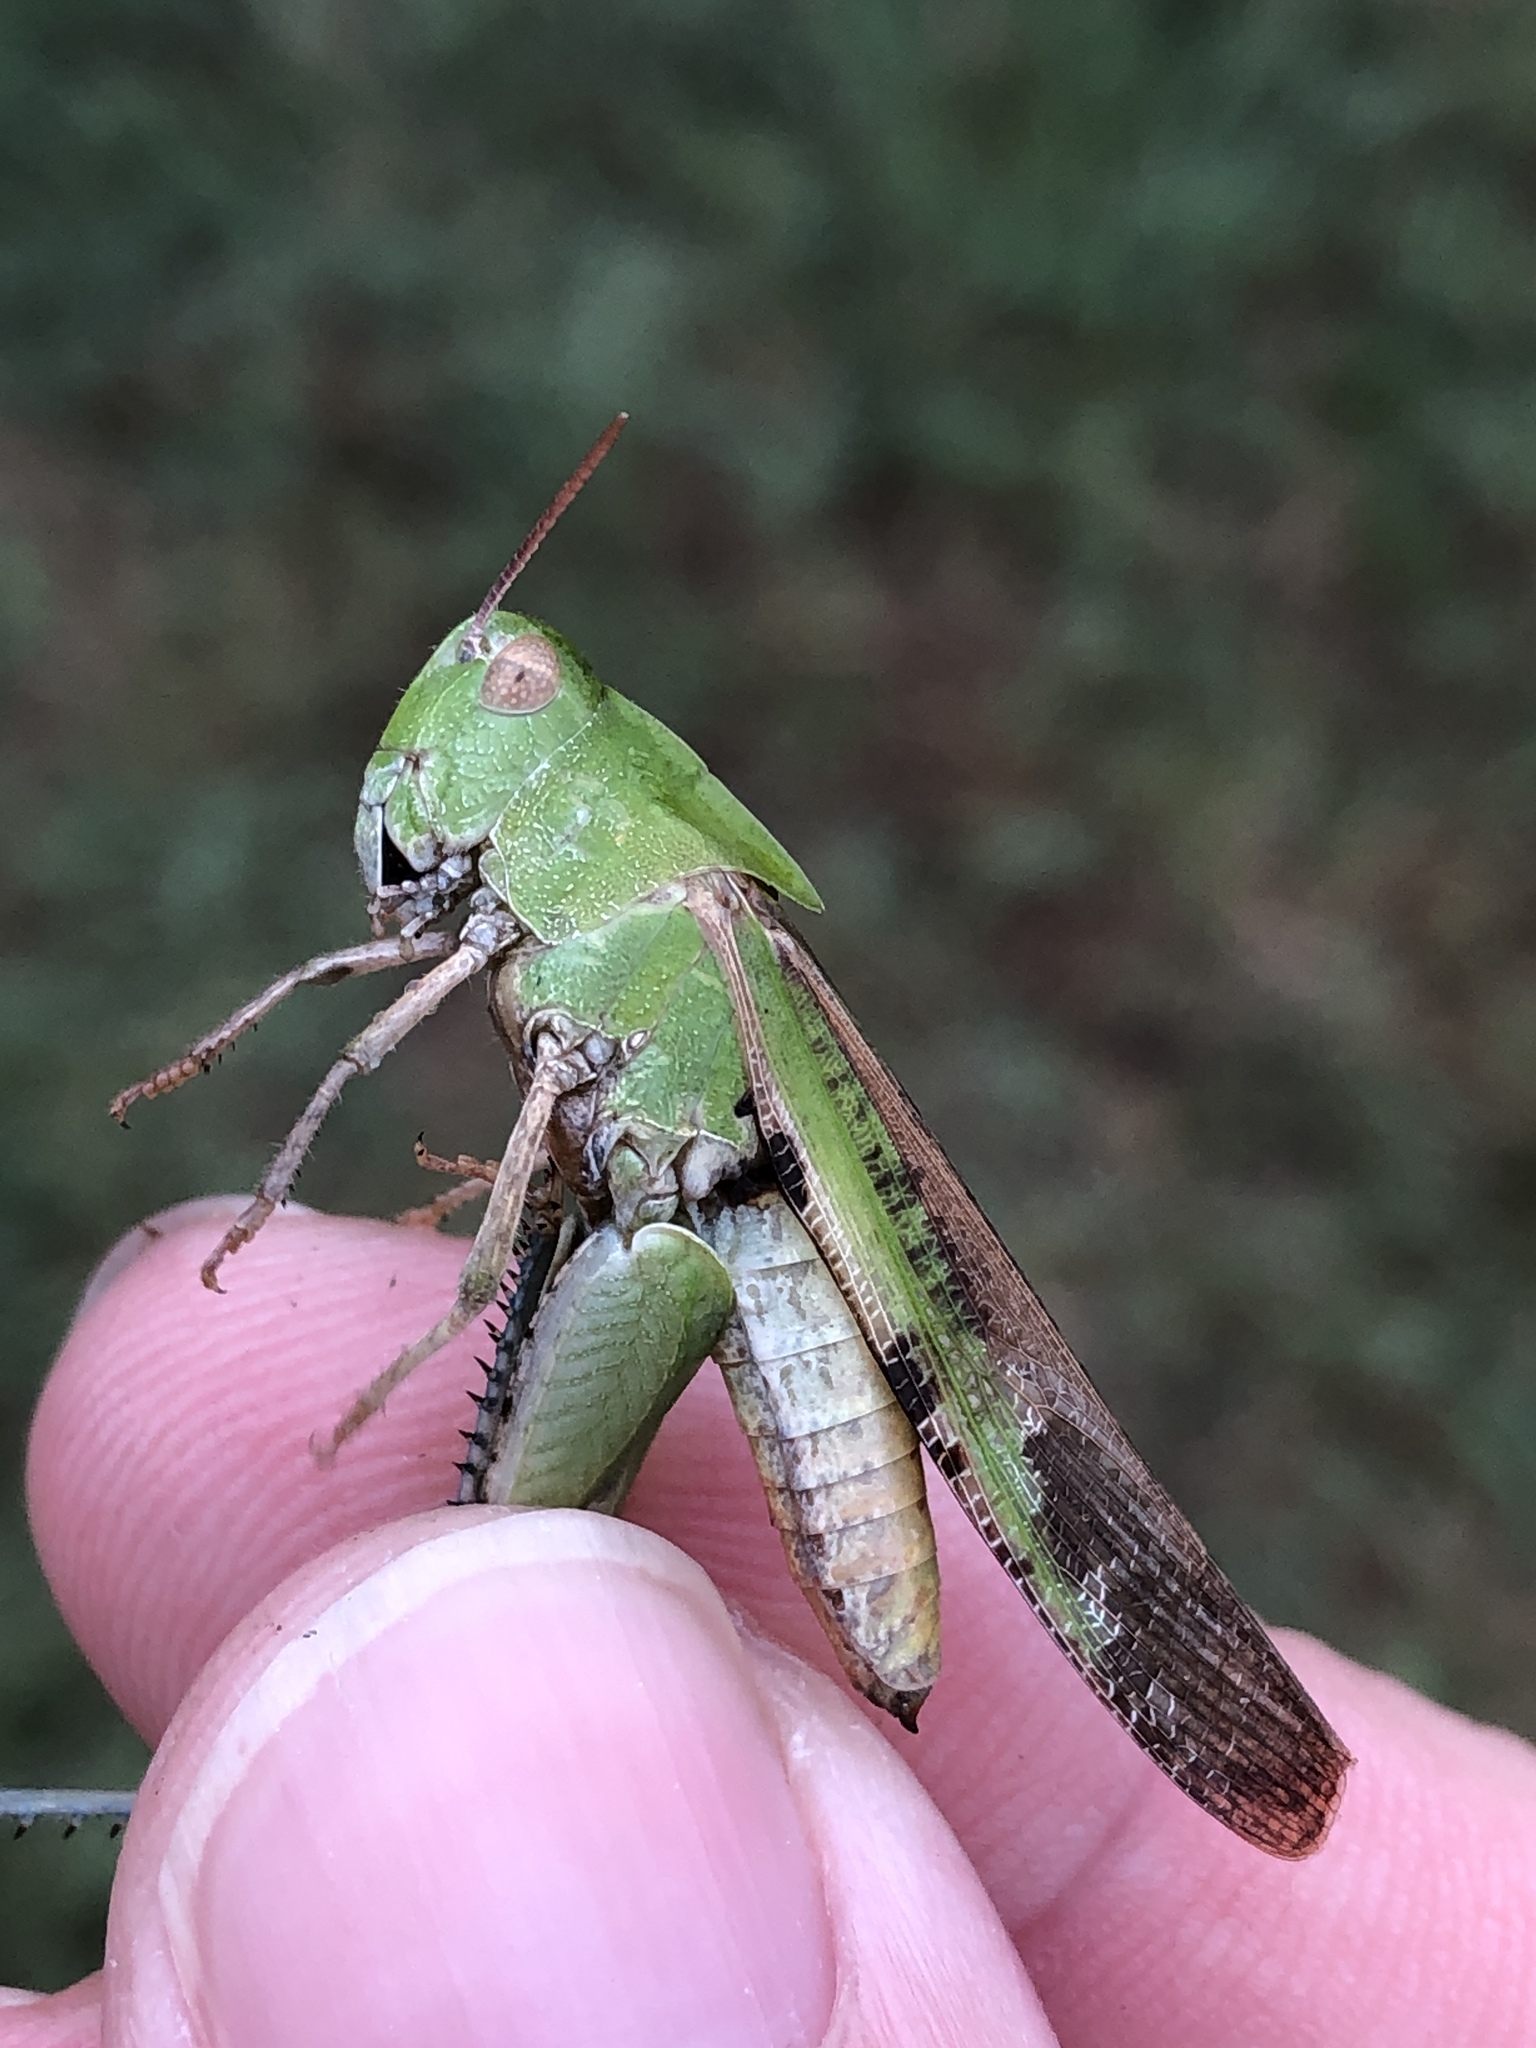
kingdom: Animalia
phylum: Arthropoda
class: Insecta
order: Orthoptera
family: Acrididae
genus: Chortophaga
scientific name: Chortophaga viridifasciata
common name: Green-striped grasshopper
